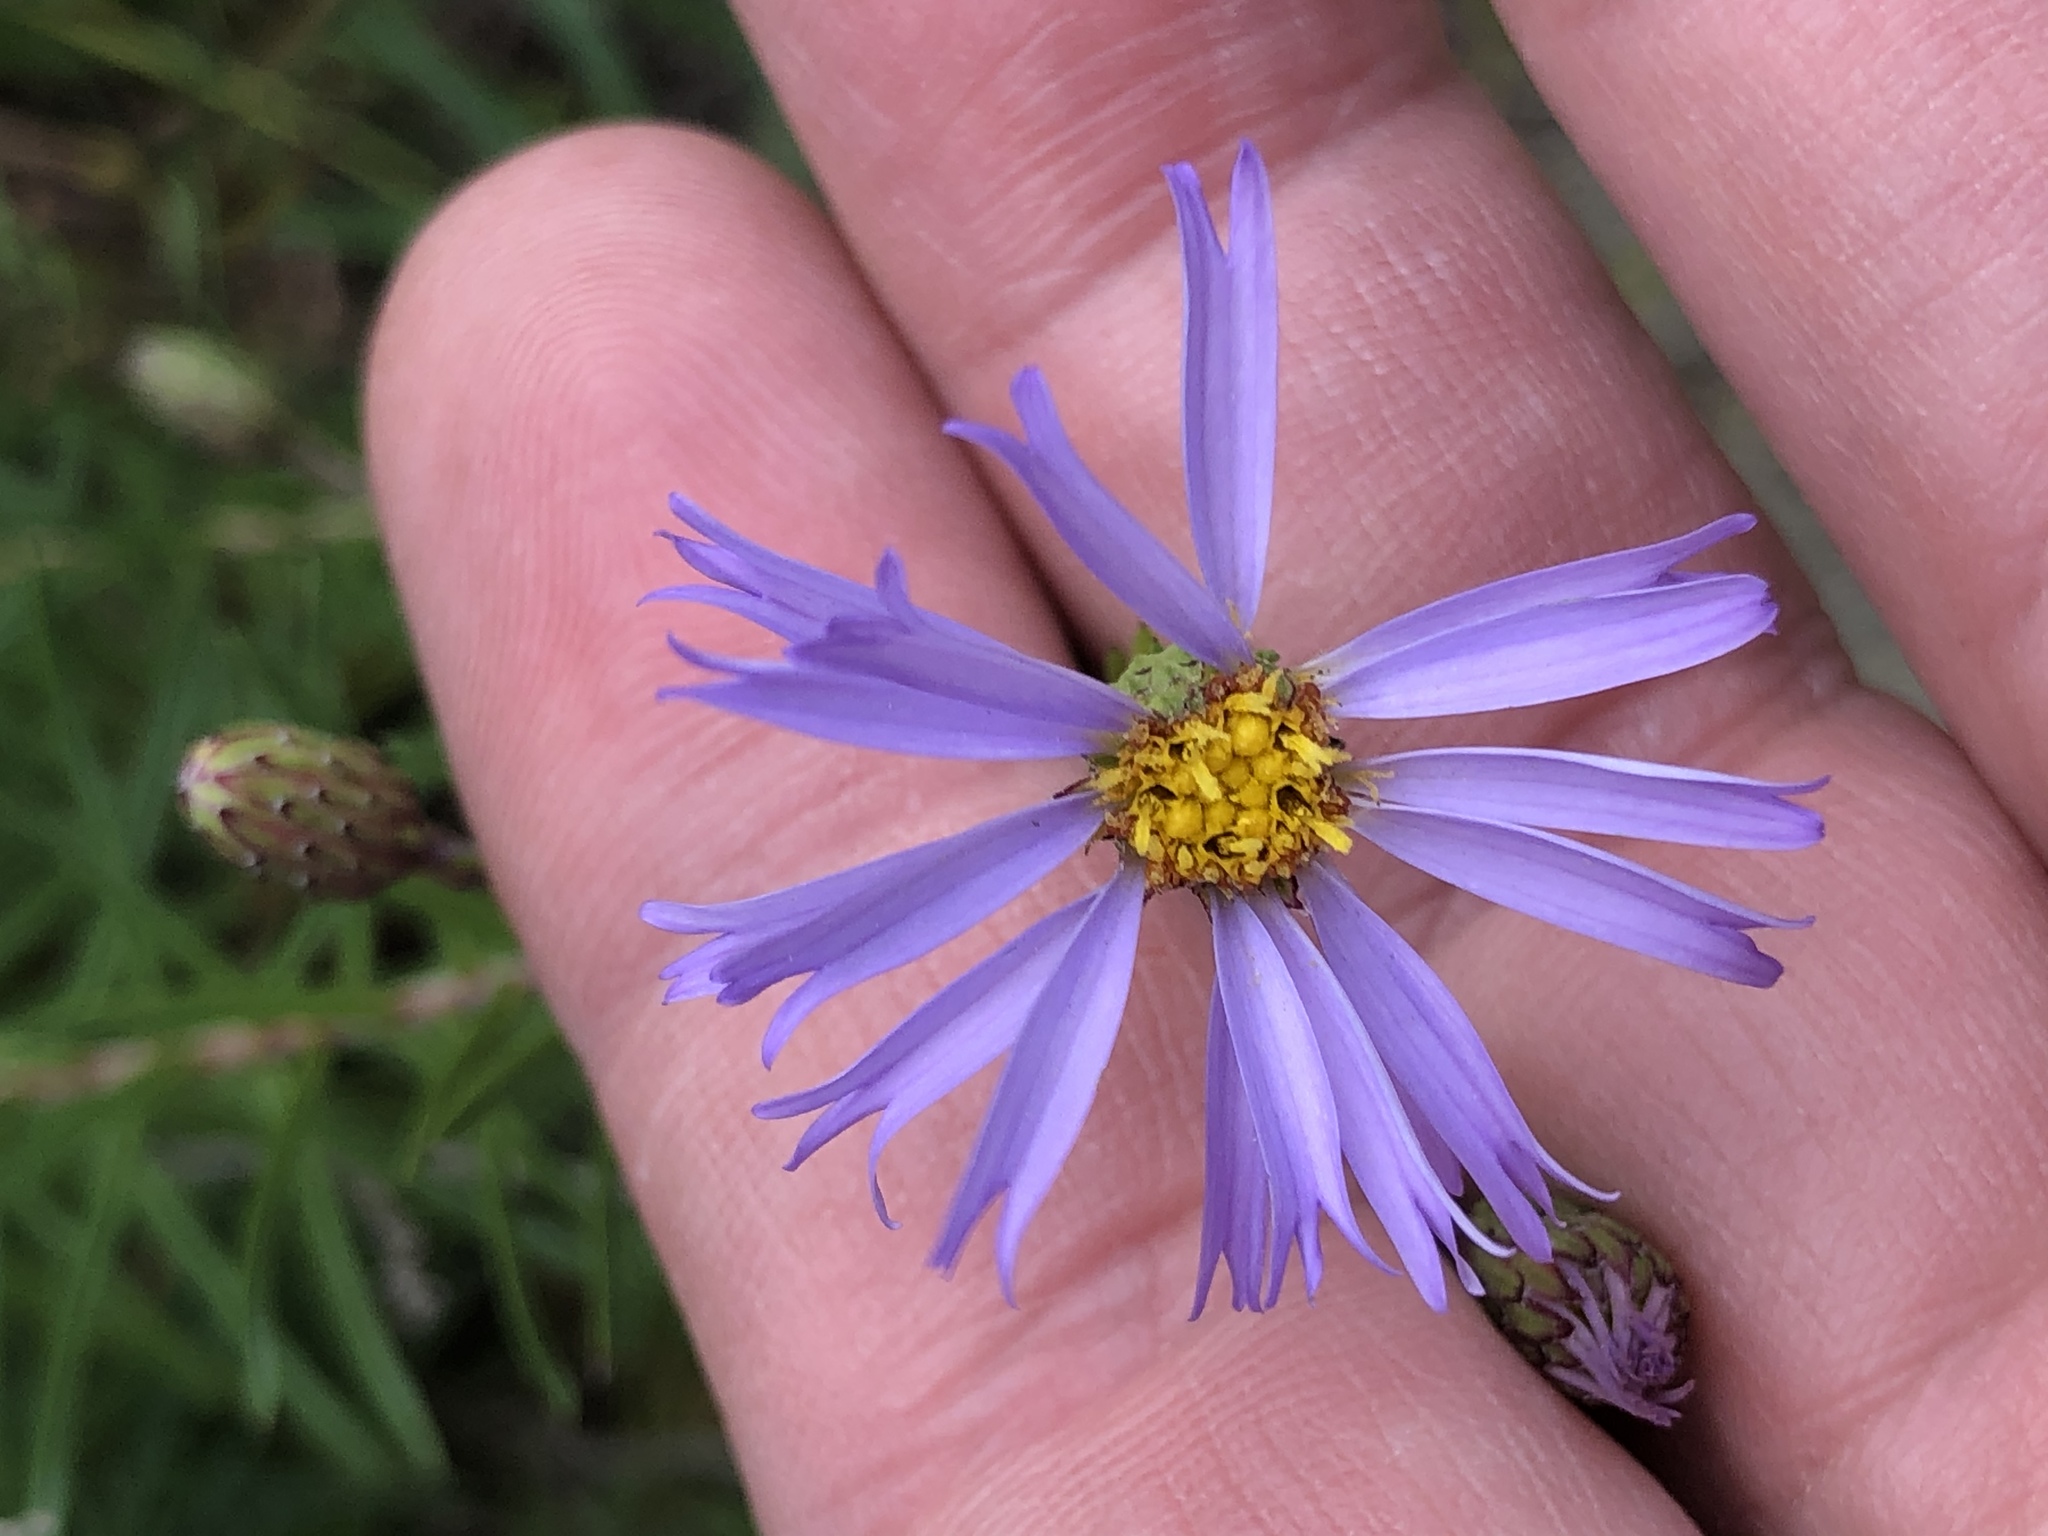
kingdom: Plantae
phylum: Tracheophyta
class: Magnoliopsida
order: Asterales
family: Asteraceae
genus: Ionactis
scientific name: Ionactis linariifolia
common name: Flax-leaf aster
